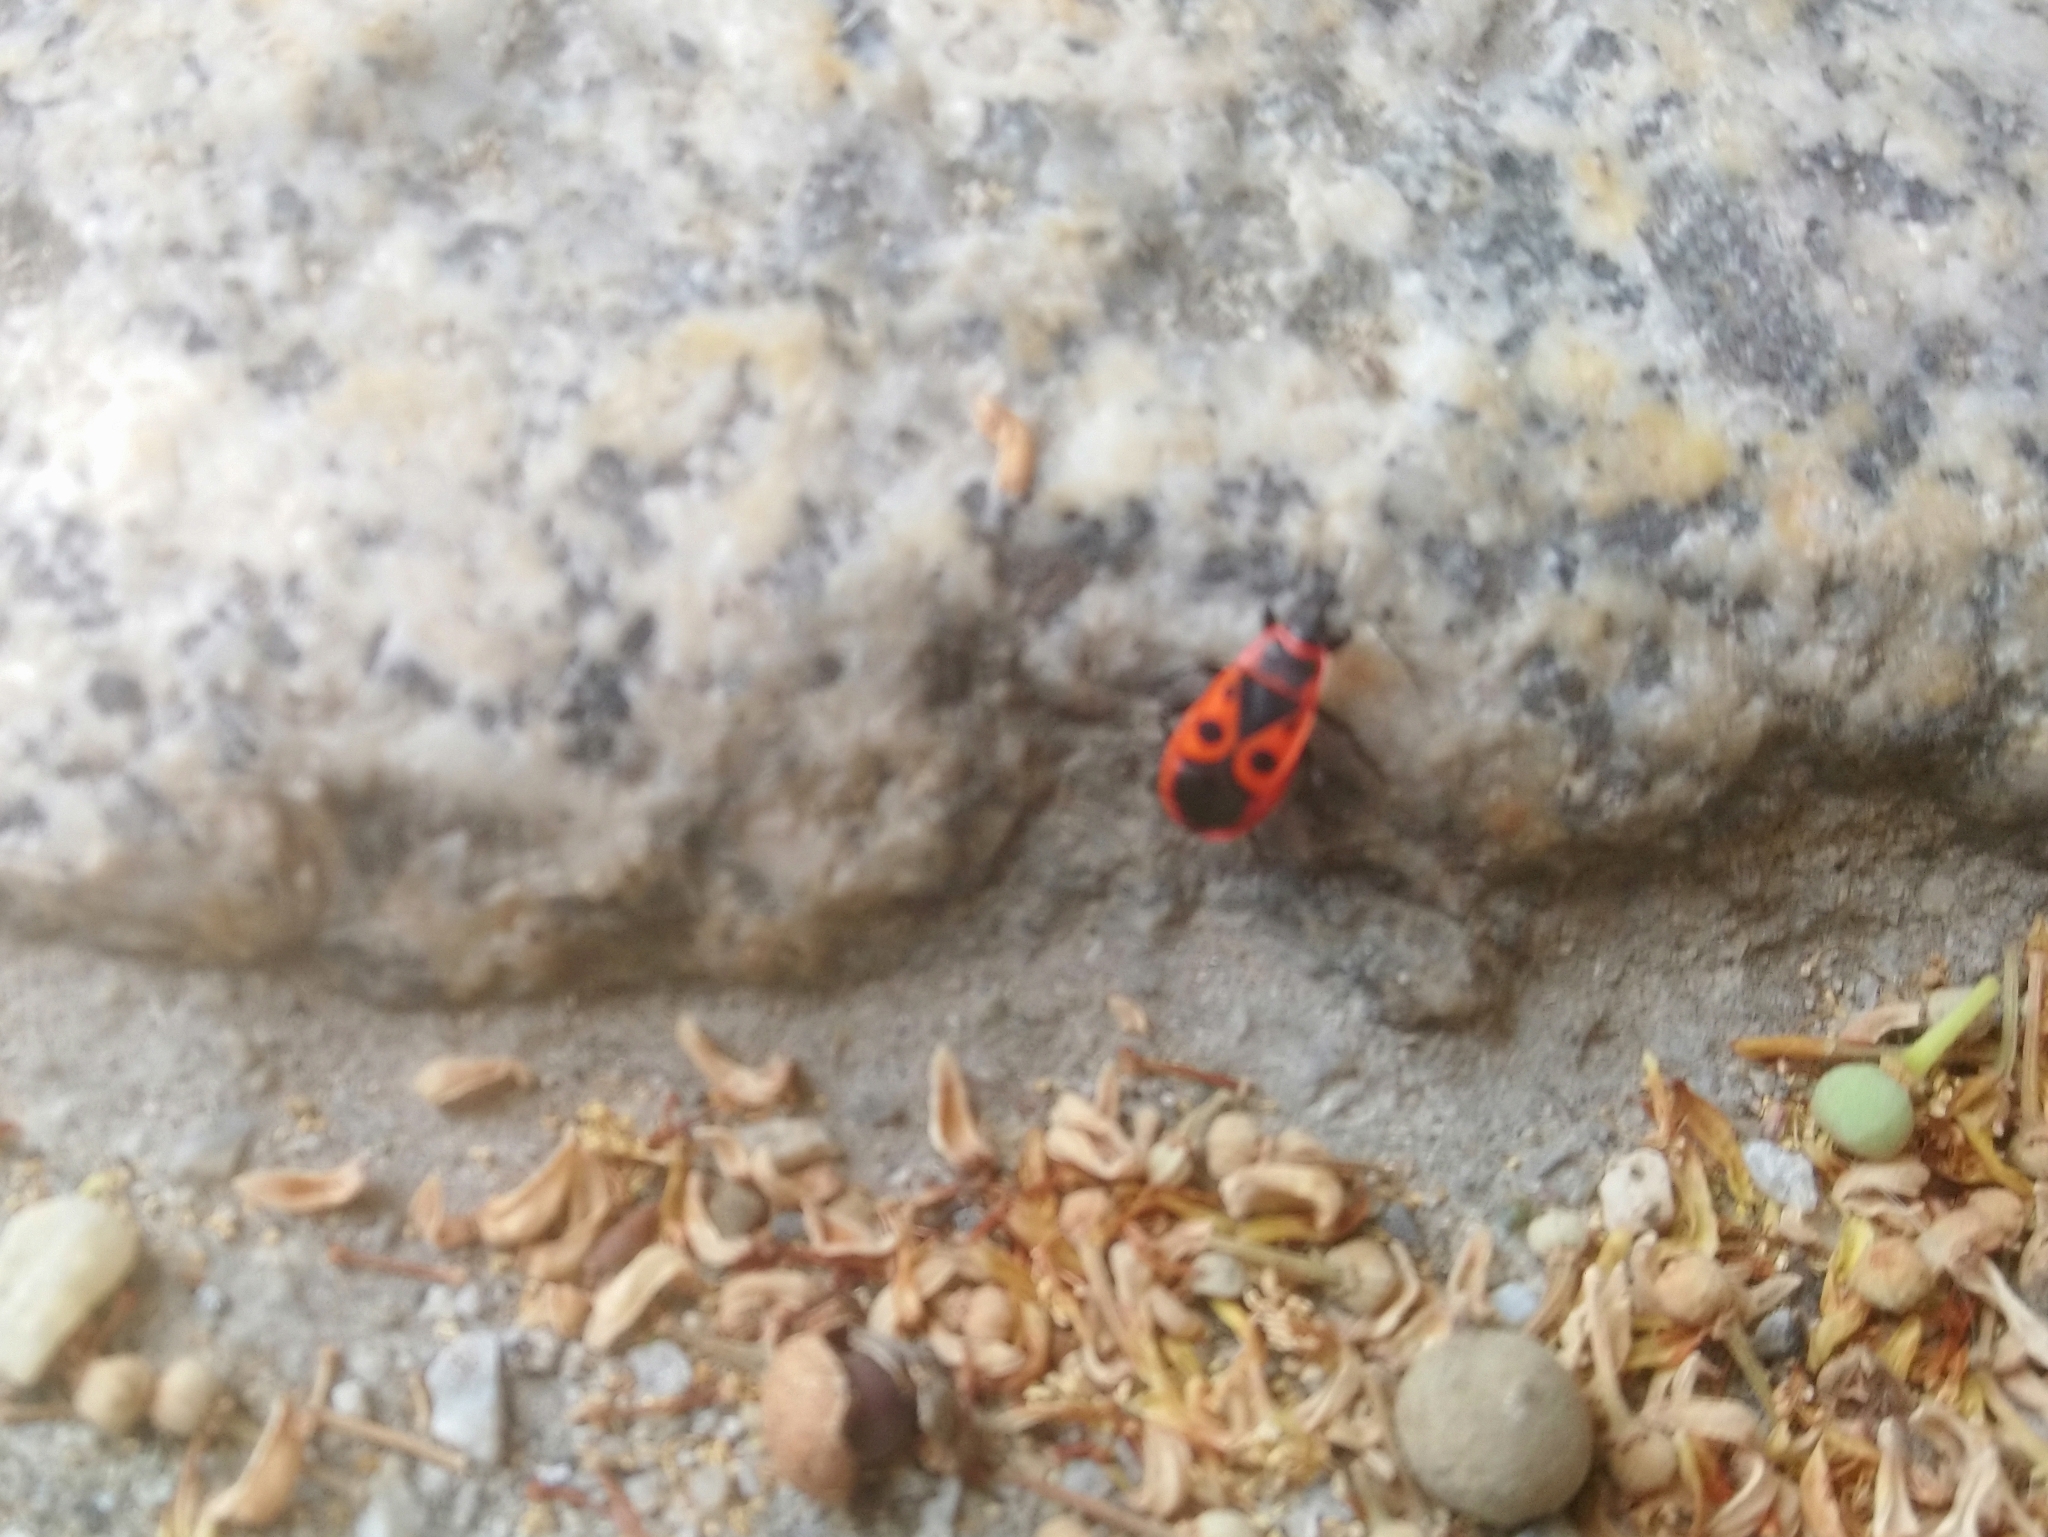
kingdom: Animalia
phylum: Arthropoda
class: Insecta
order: Hemiptera
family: Pyrrhocoridae
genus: Pyrrhocoris
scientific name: Pyrrhocoris apterus
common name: Firebug
